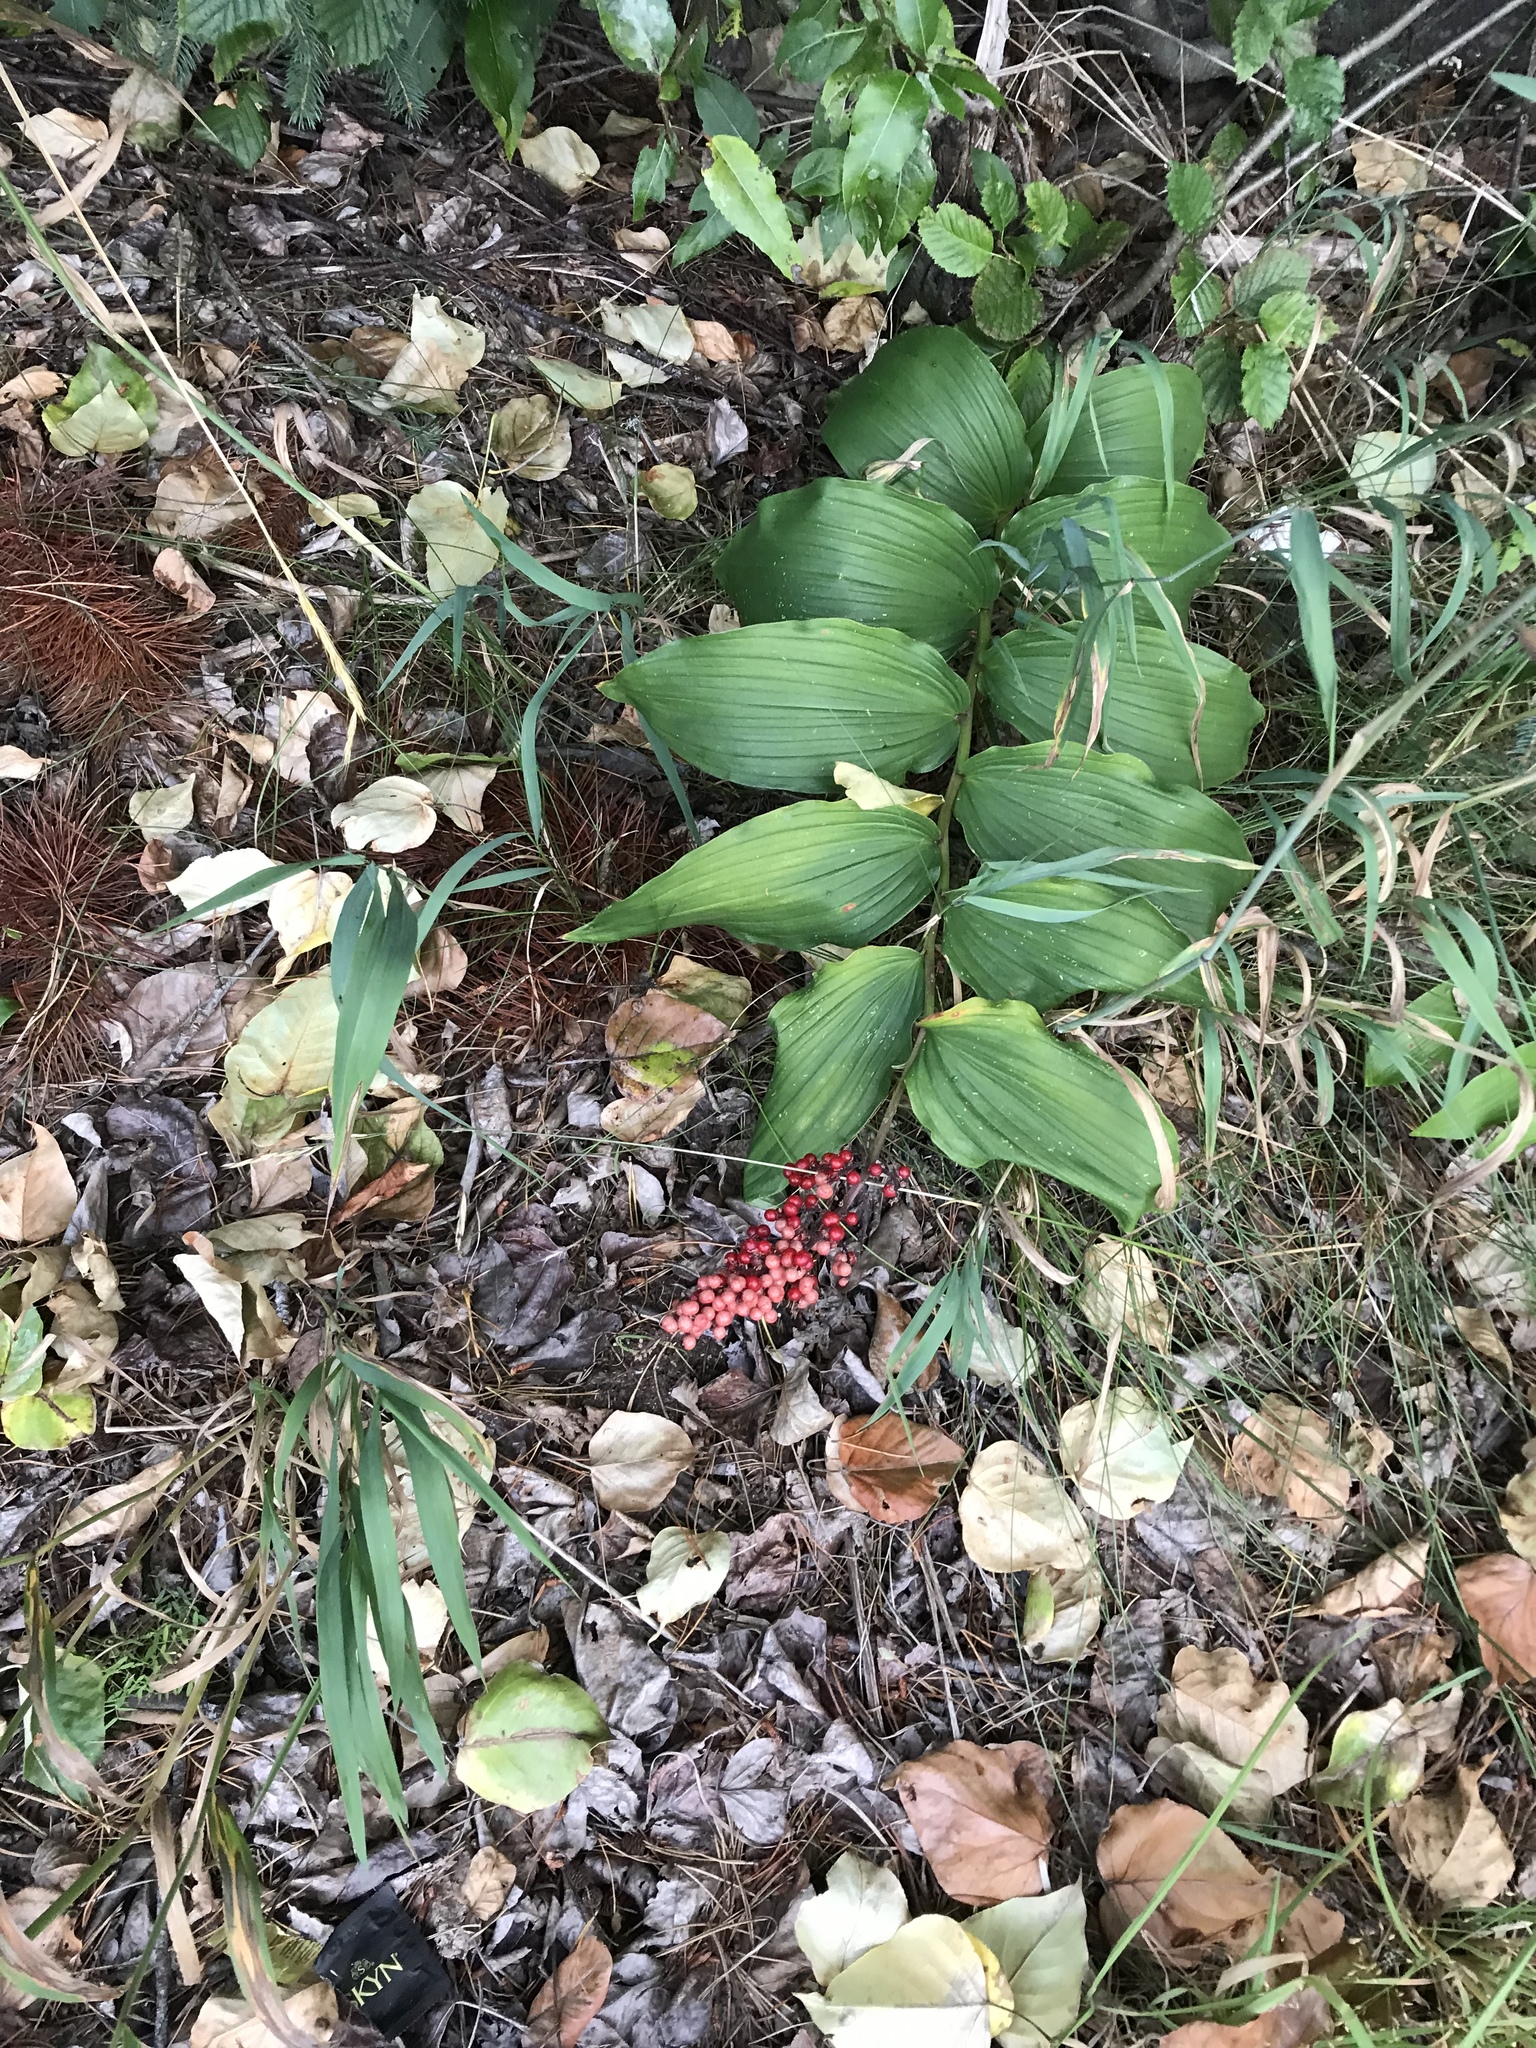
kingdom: Plantae
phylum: Tracheophyta
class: Liliopsida
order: Asparagales
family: Asparagaceae
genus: Maianthemum
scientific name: Maianthemum racemosum
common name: False spikenard
